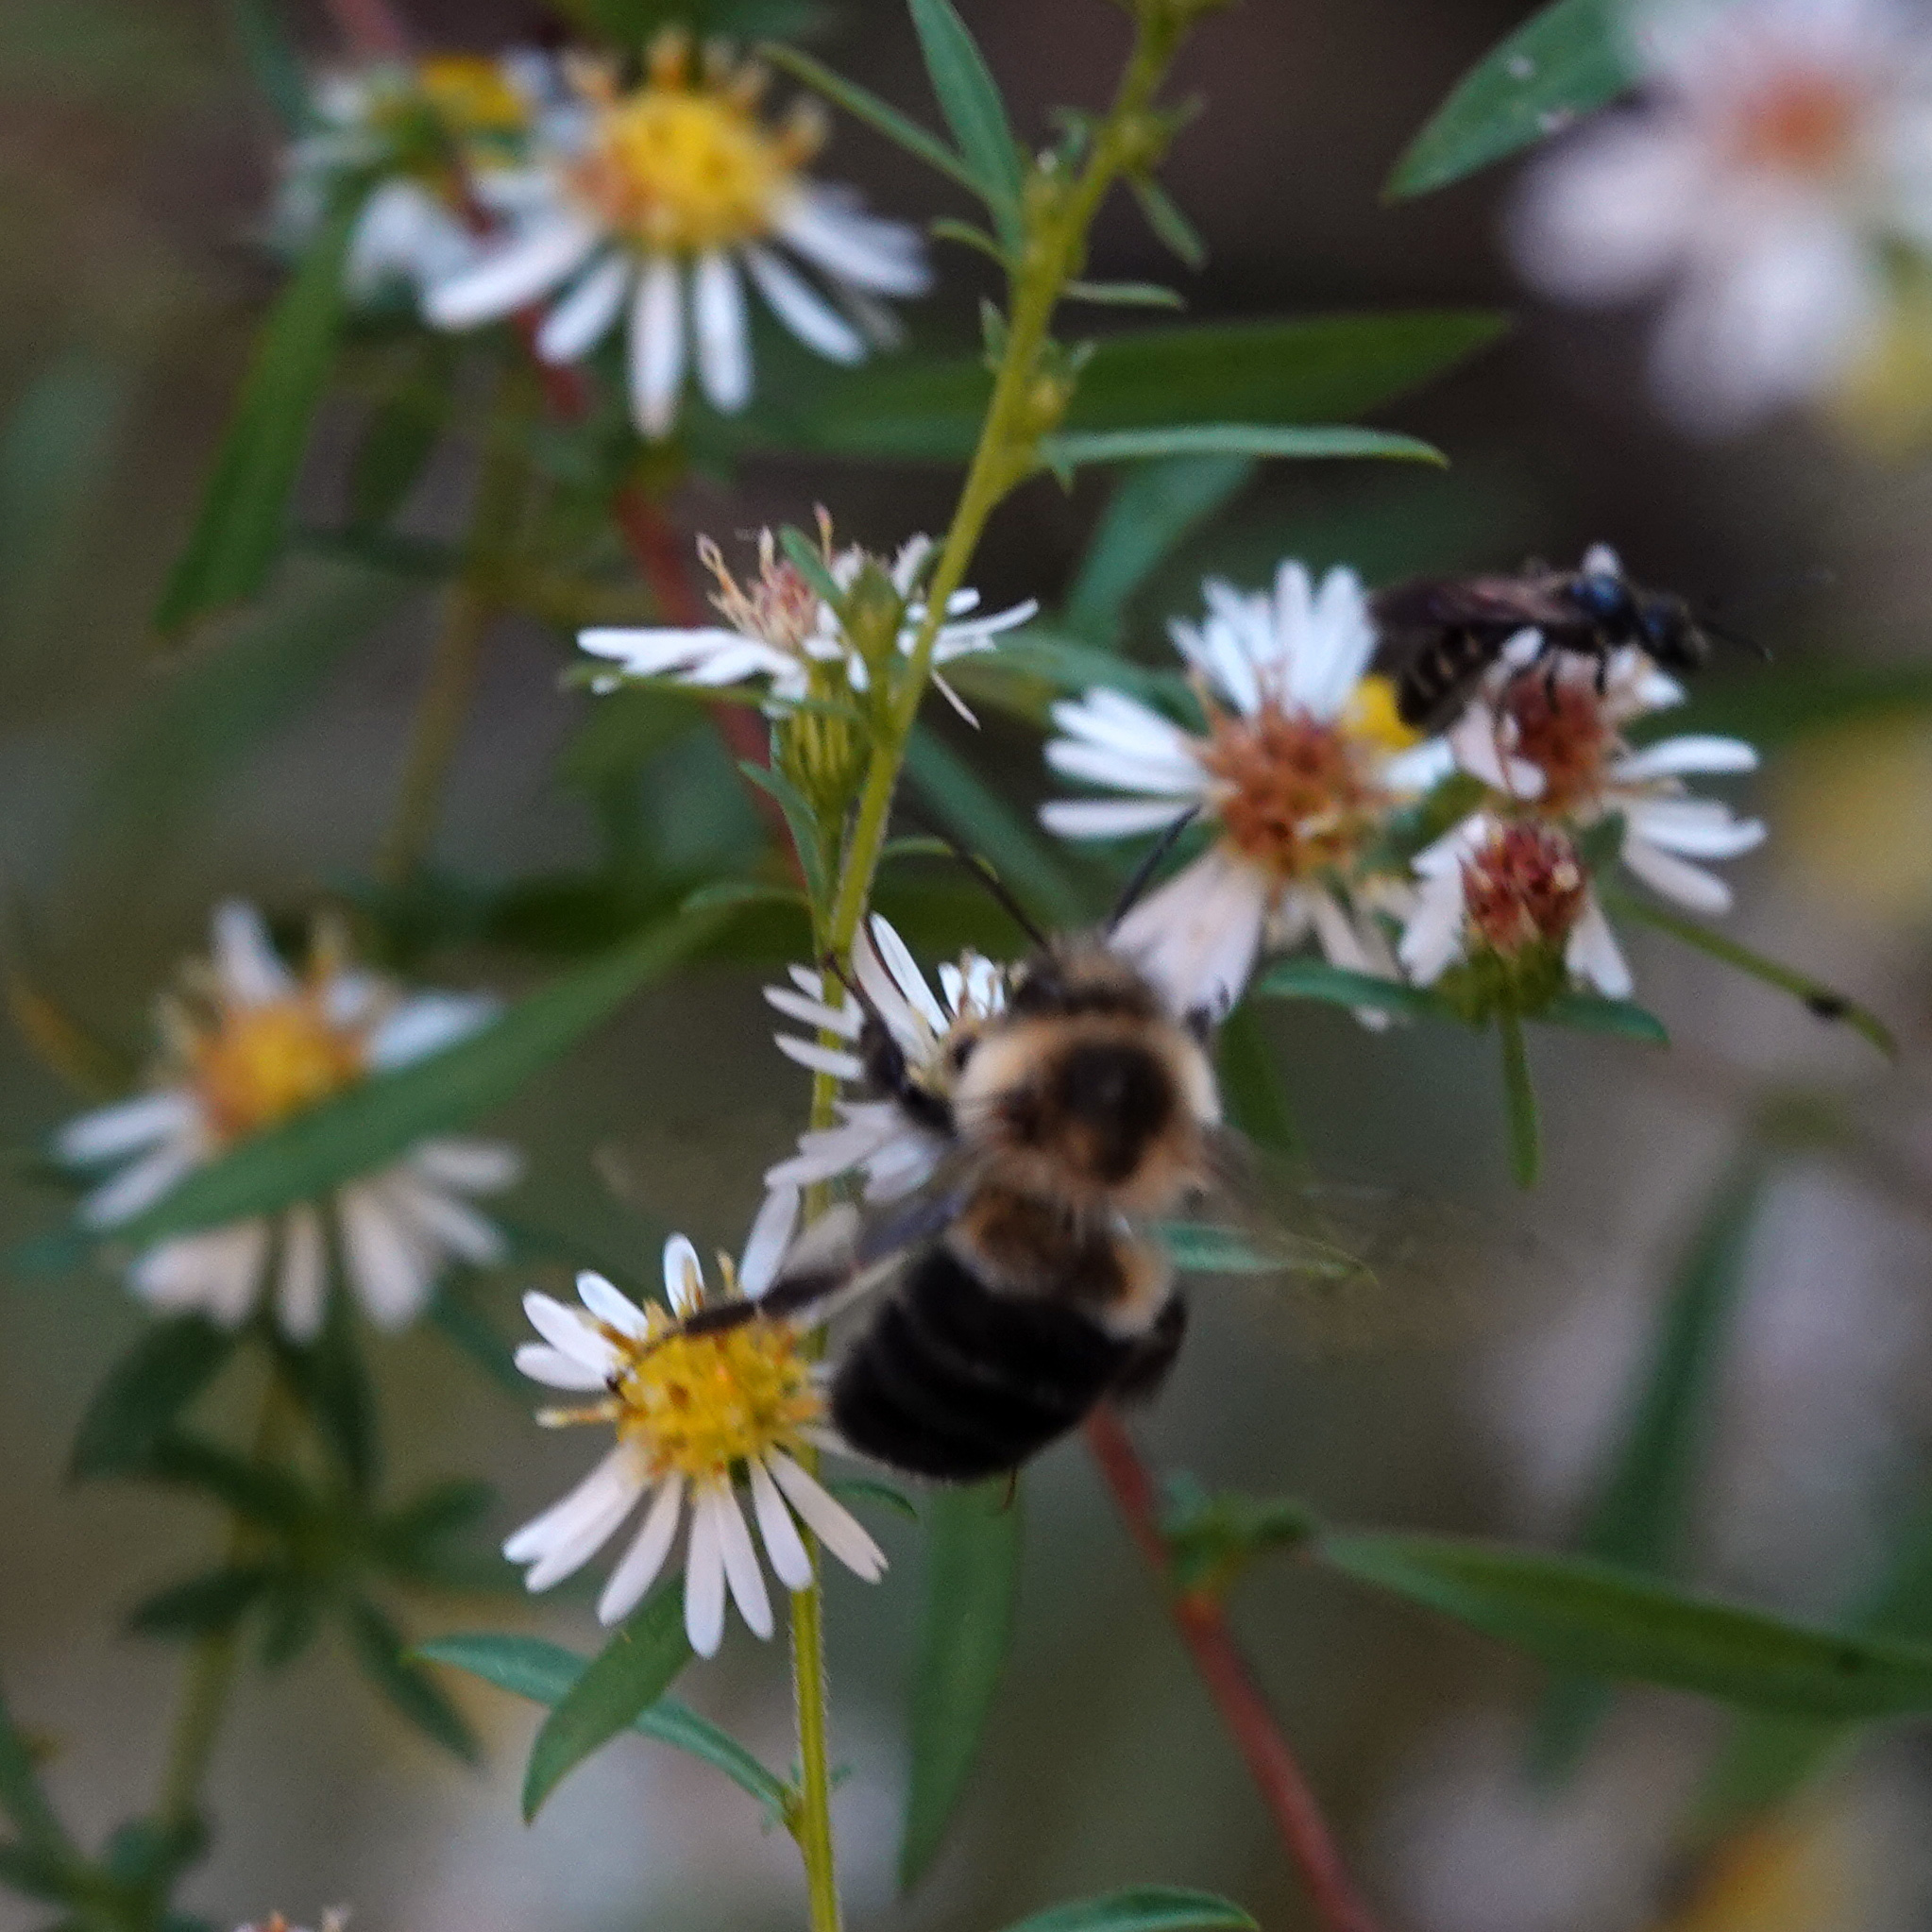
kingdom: Animalia
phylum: Arthropoda
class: Insecta
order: Hymenoptera
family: Apidae
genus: Bombus
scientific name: Bombus impatiens
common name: Common eastern bumble bee
